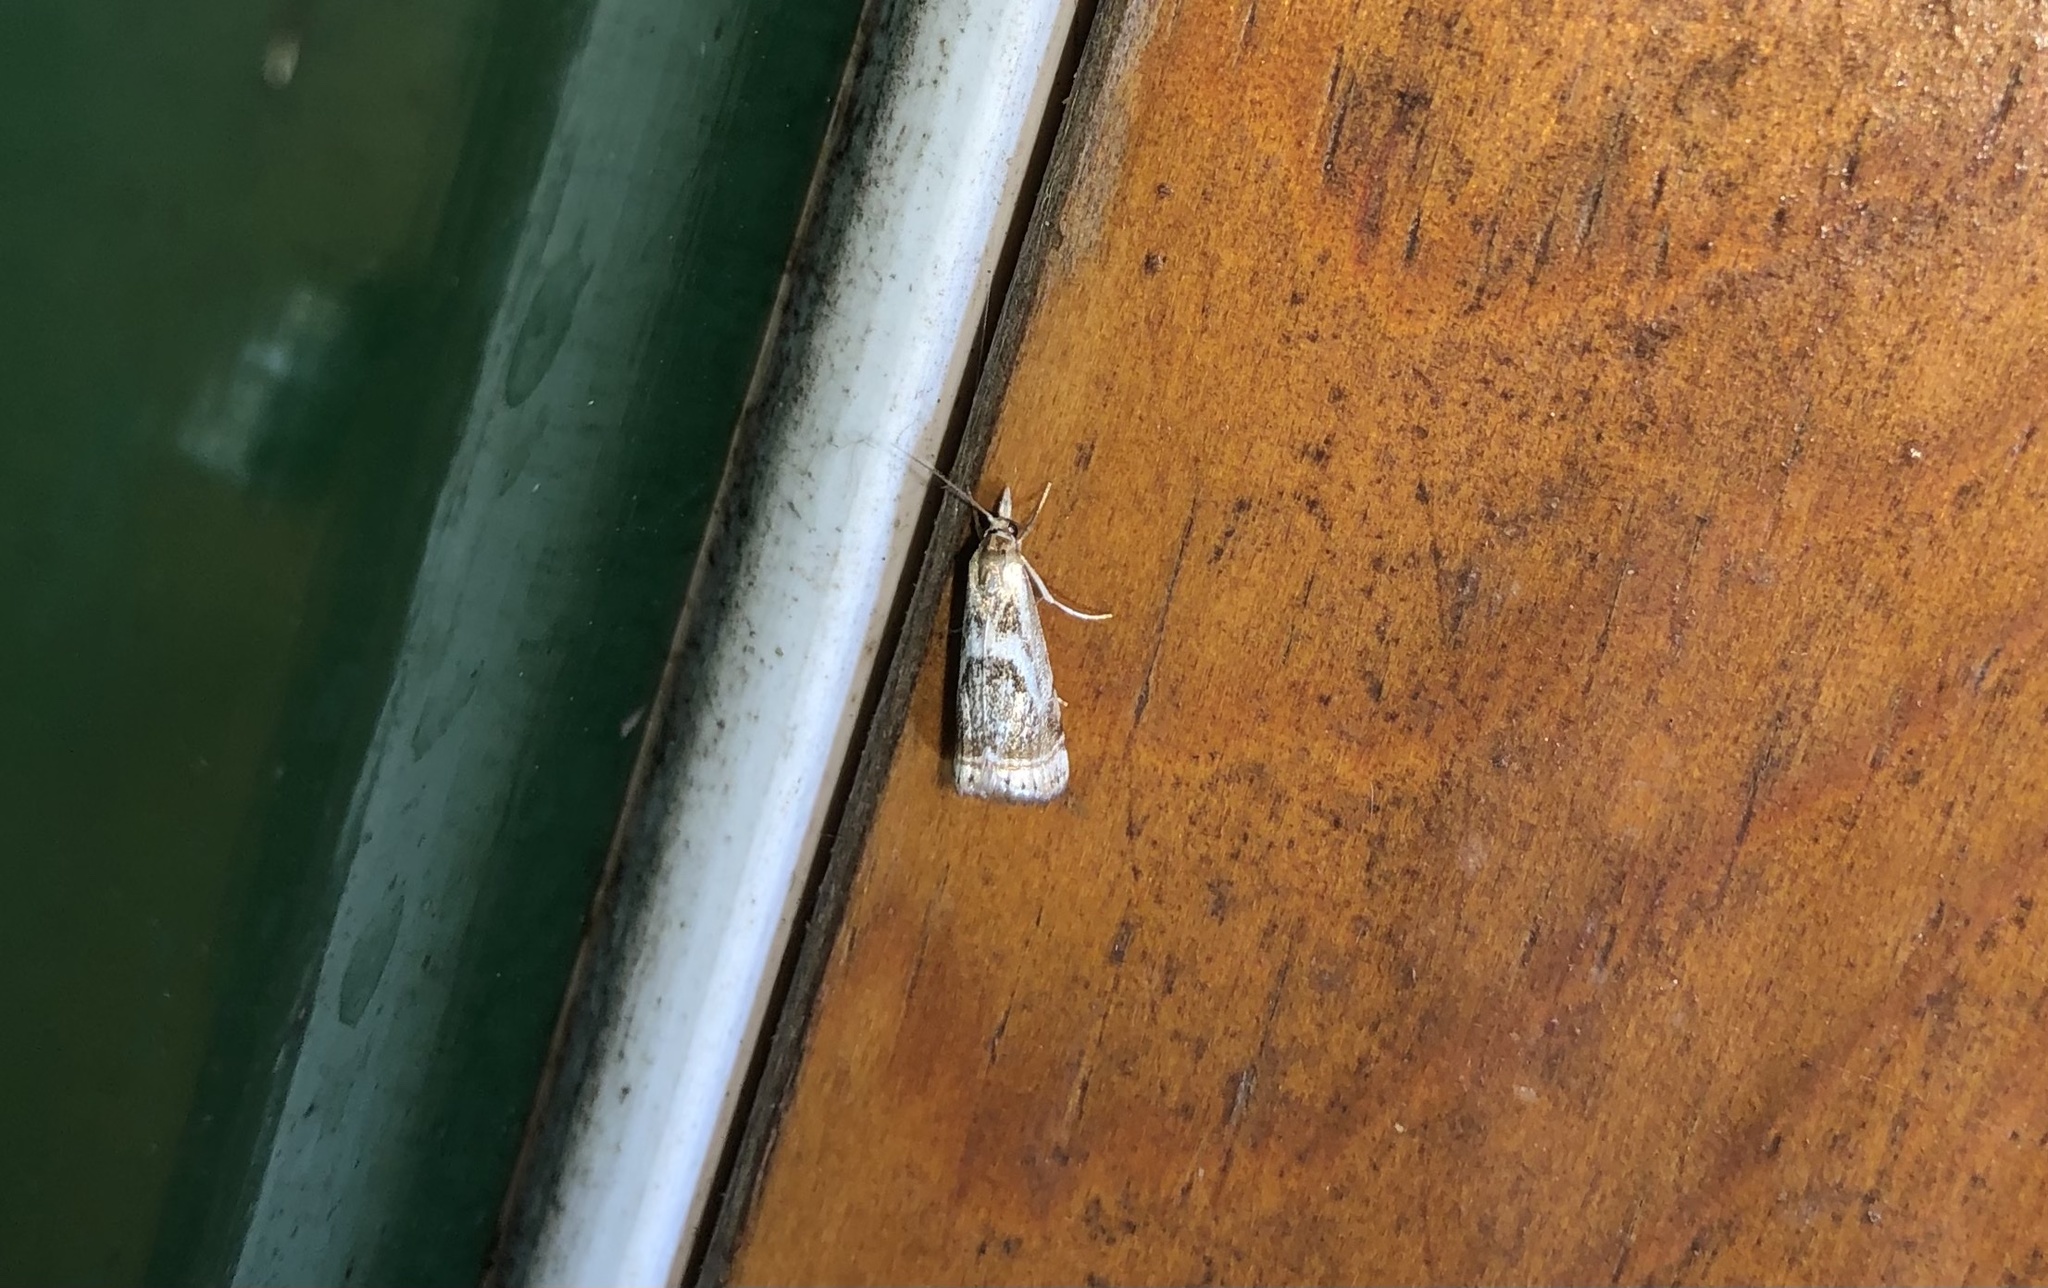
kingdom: Animalia
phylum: Arthropoda
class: Insecta
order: Lepidoptera
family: Crambidae
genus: Microcrambus
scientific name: Microcrambus elegans
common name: Elegant grass-veneer
